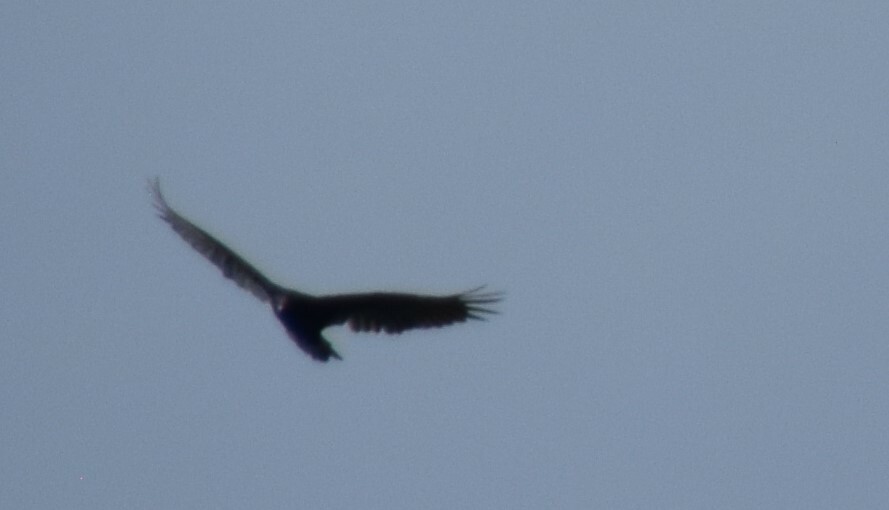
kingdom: Animalia
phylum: Chordata
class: Aves
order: Accipitriformes
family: Cathartidae
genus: Cathartes
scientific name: Cathartes aura
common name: Turkey vulture
